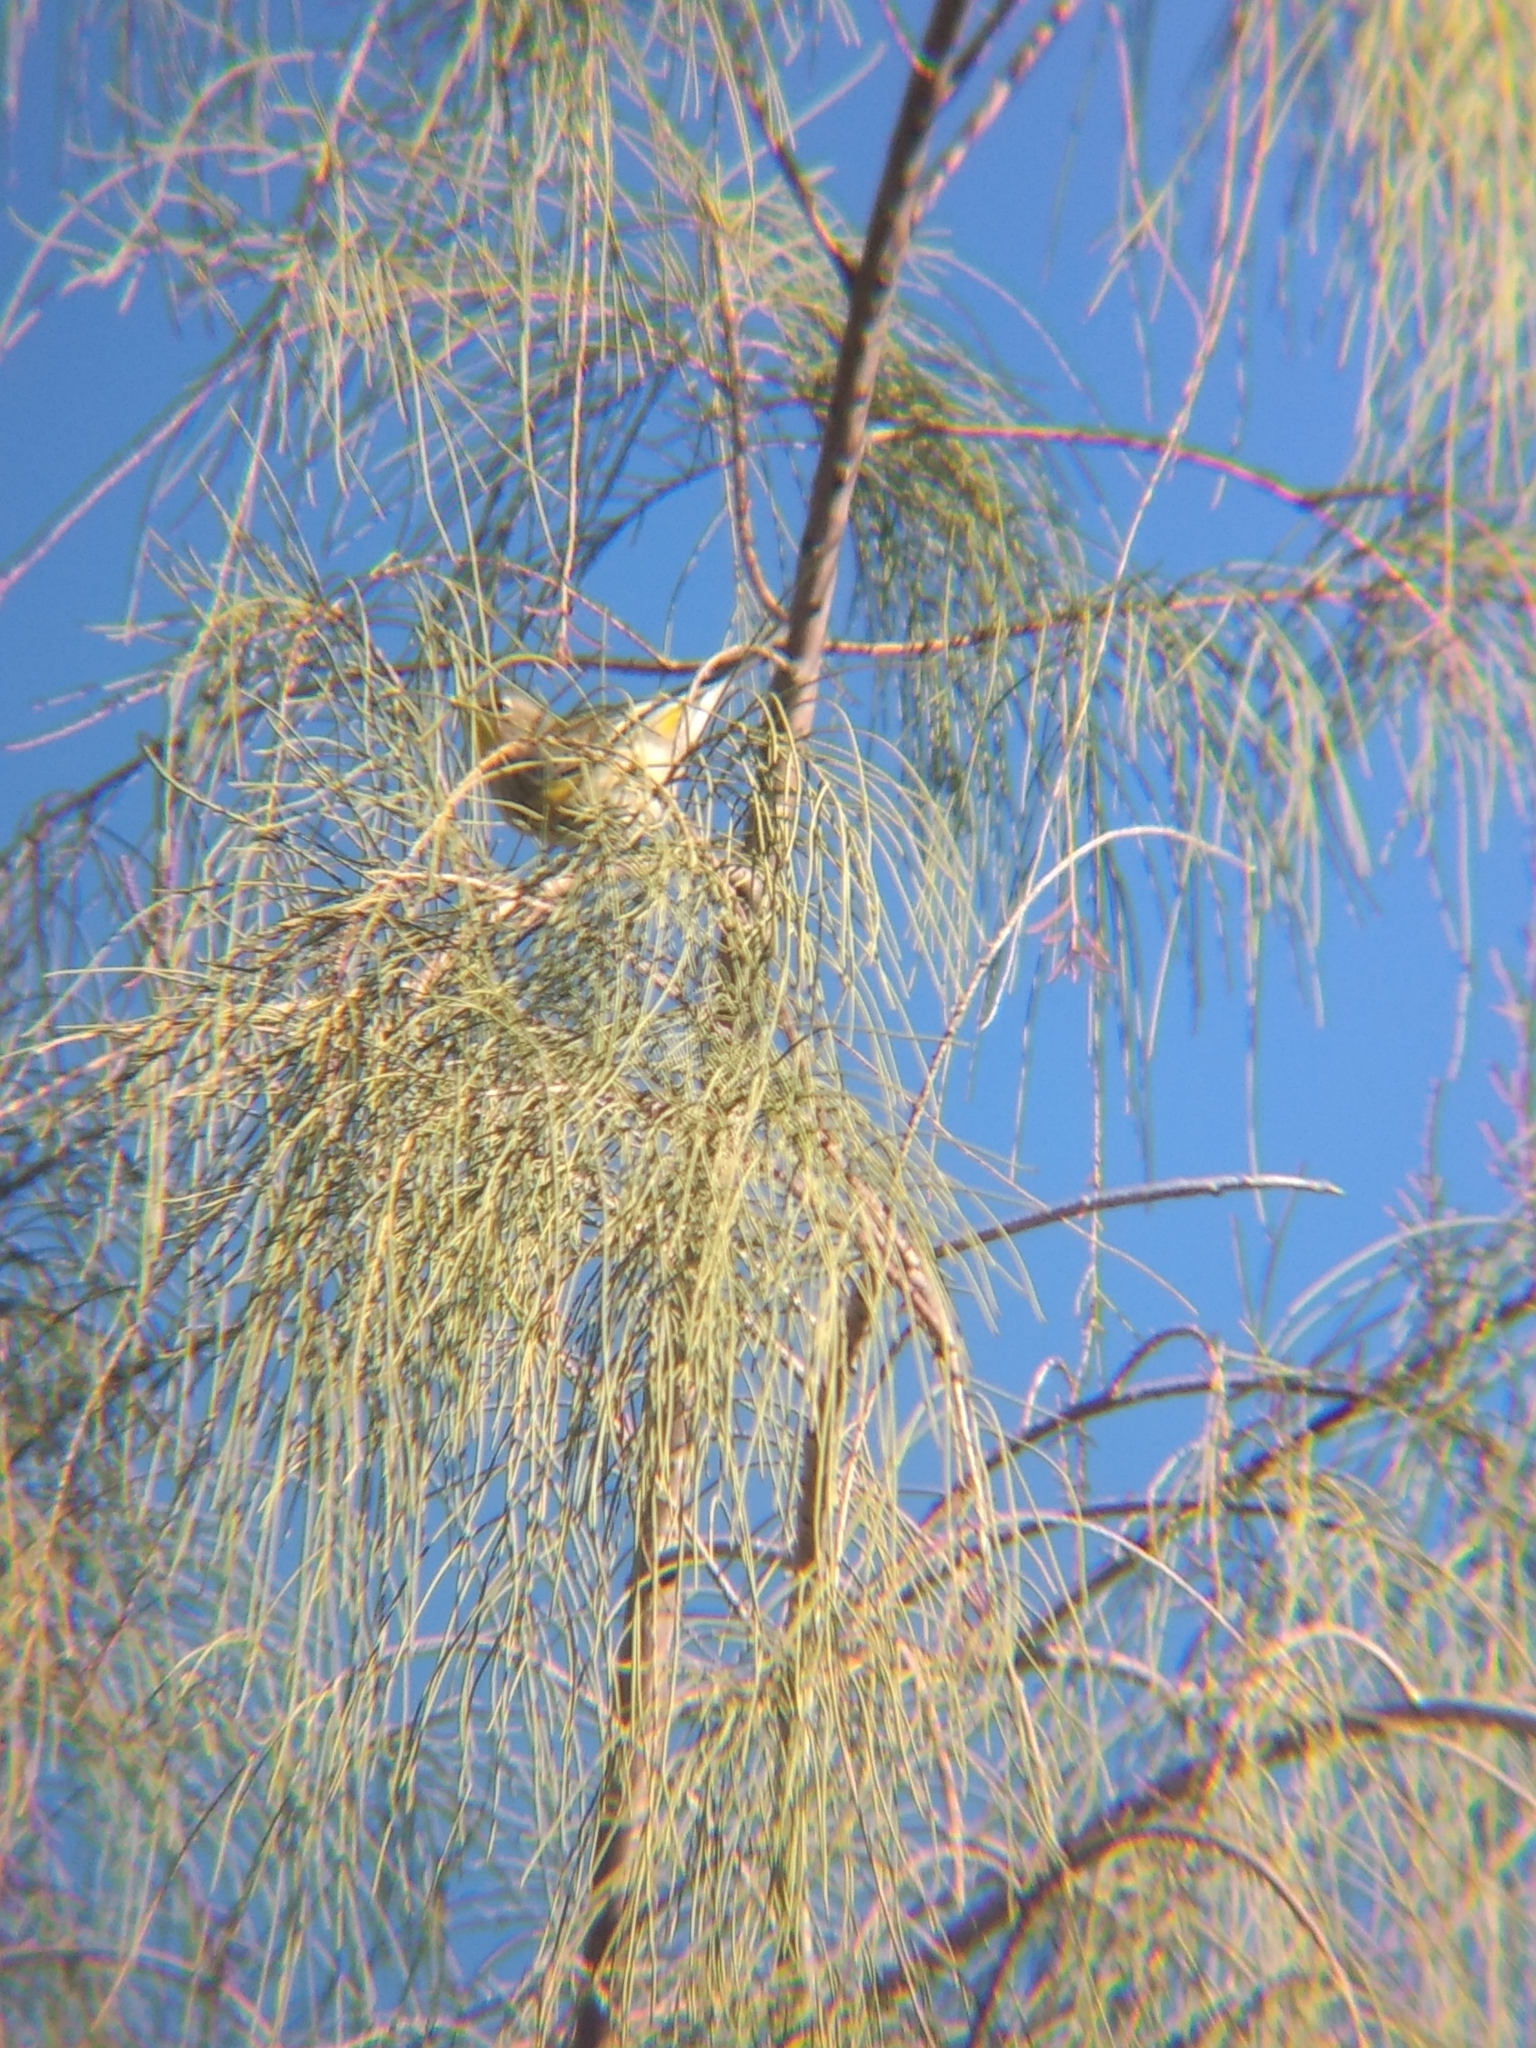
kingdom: Animalia
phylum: Chordata
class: Aves
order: Passeriformes
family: Parulidae
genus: Setophaga
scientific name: Setophaga coronata
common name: Myrtle warbler
